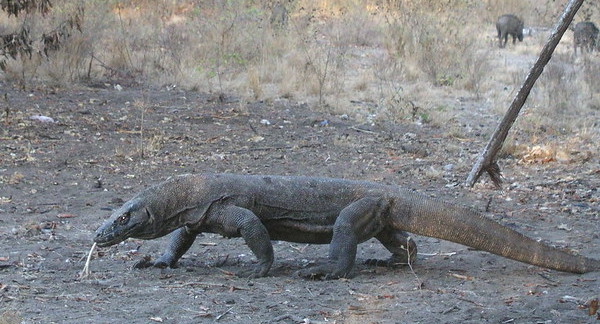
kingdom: Animalia
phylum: Chordata
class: Squamata
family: Varanidae
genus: Varanus
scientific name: Varanus komodoensis
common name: Komodo dragon
